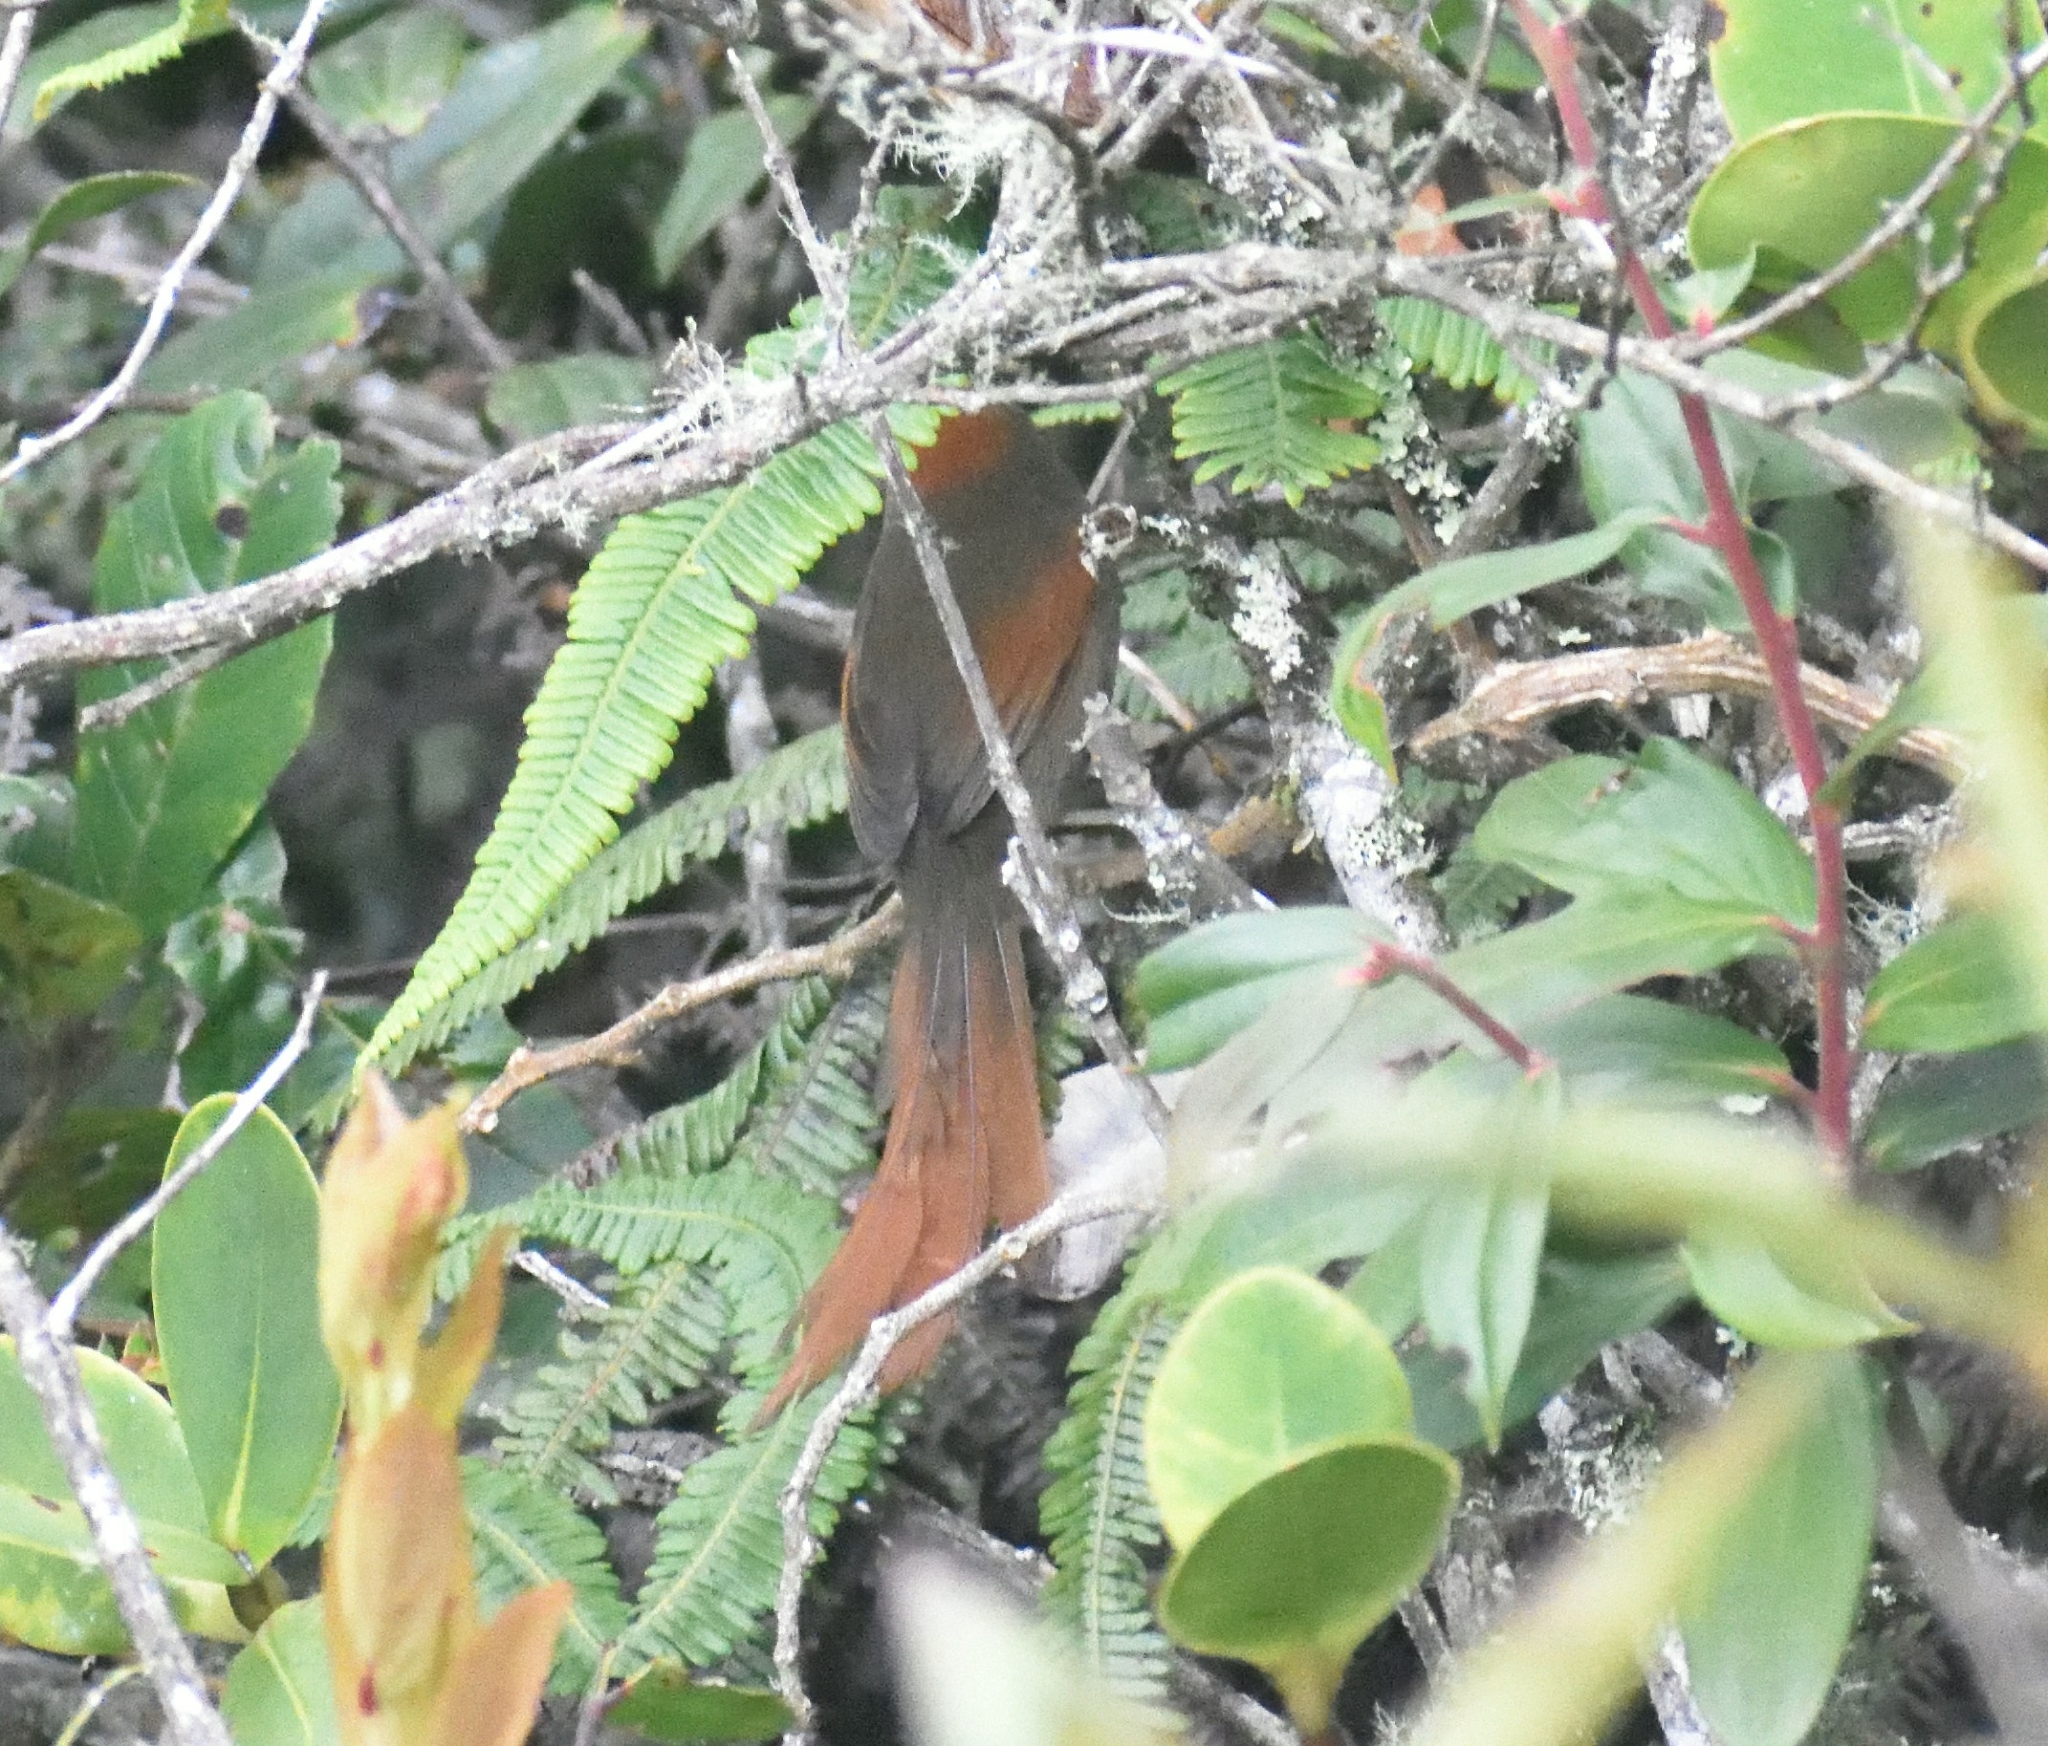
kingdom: Animalia
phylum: Chordata
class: Aves
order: Passeriformes
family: Furnariidae
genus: Synallaxis
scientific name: Synallaxis azarae
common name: Azara's spinetail
